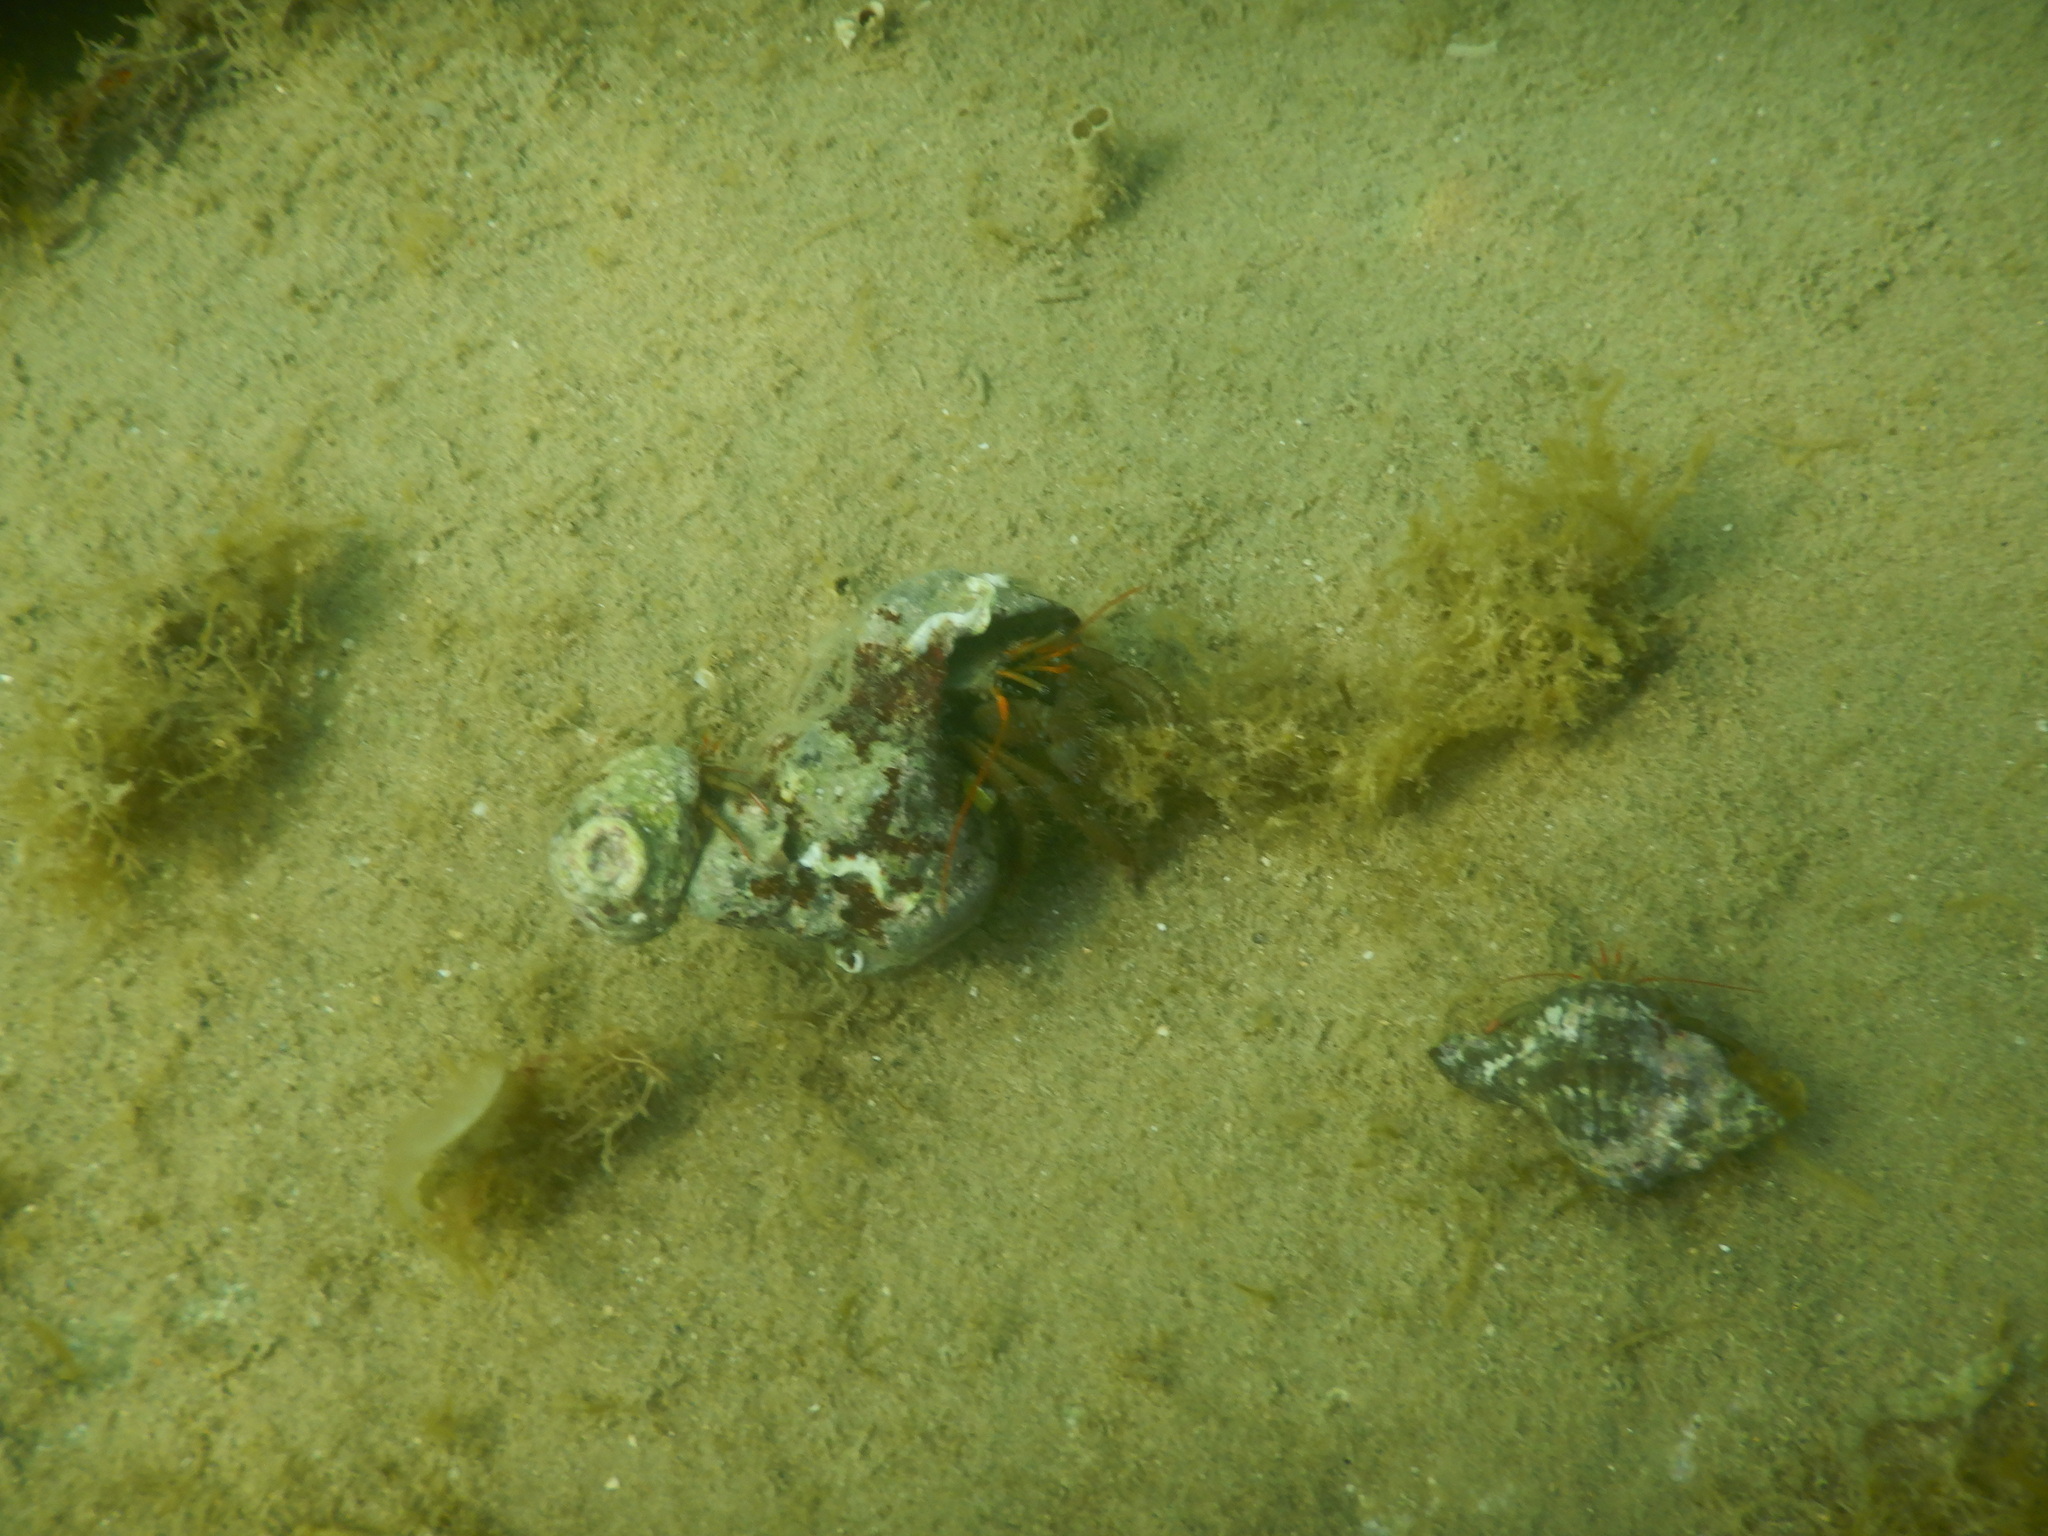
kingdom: Animalia
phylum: Arthropoda
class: Malacostraca
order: Decapoda
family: Diogenidae
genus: Clibanarius
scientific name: Clibanarius erythropus
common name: Hermit crab
